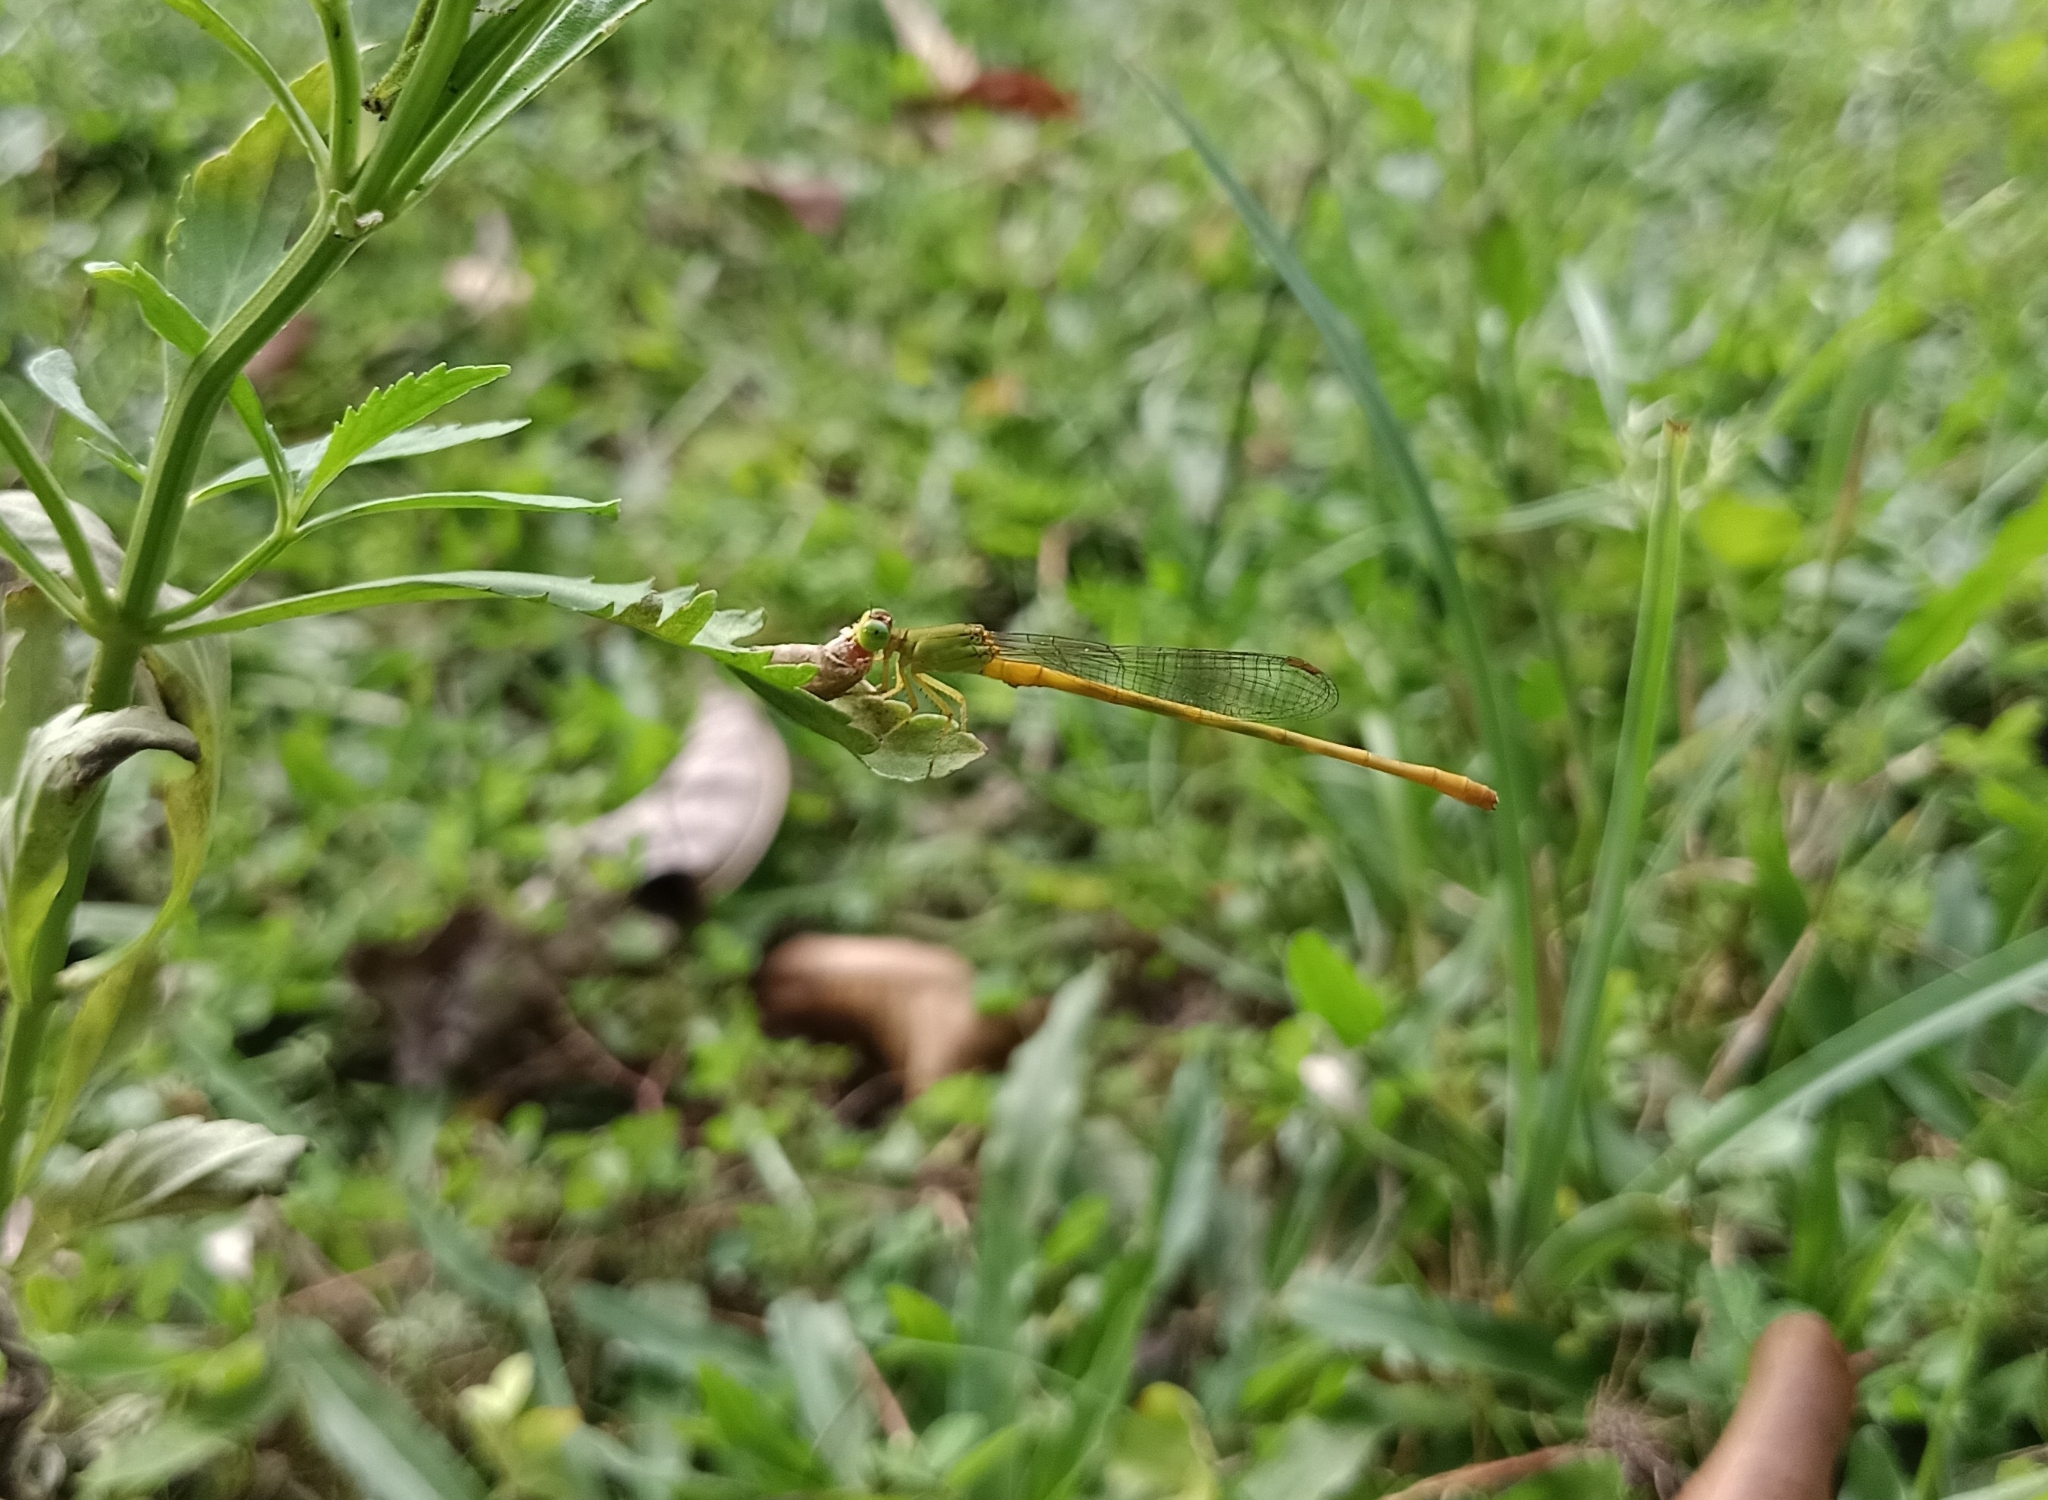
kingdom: Animalia
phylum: Arthropoda
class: Insecta
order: Odonata
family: Coenagrionidae
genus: Ceriagrion
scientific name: Ceriagrion coromandelianum
